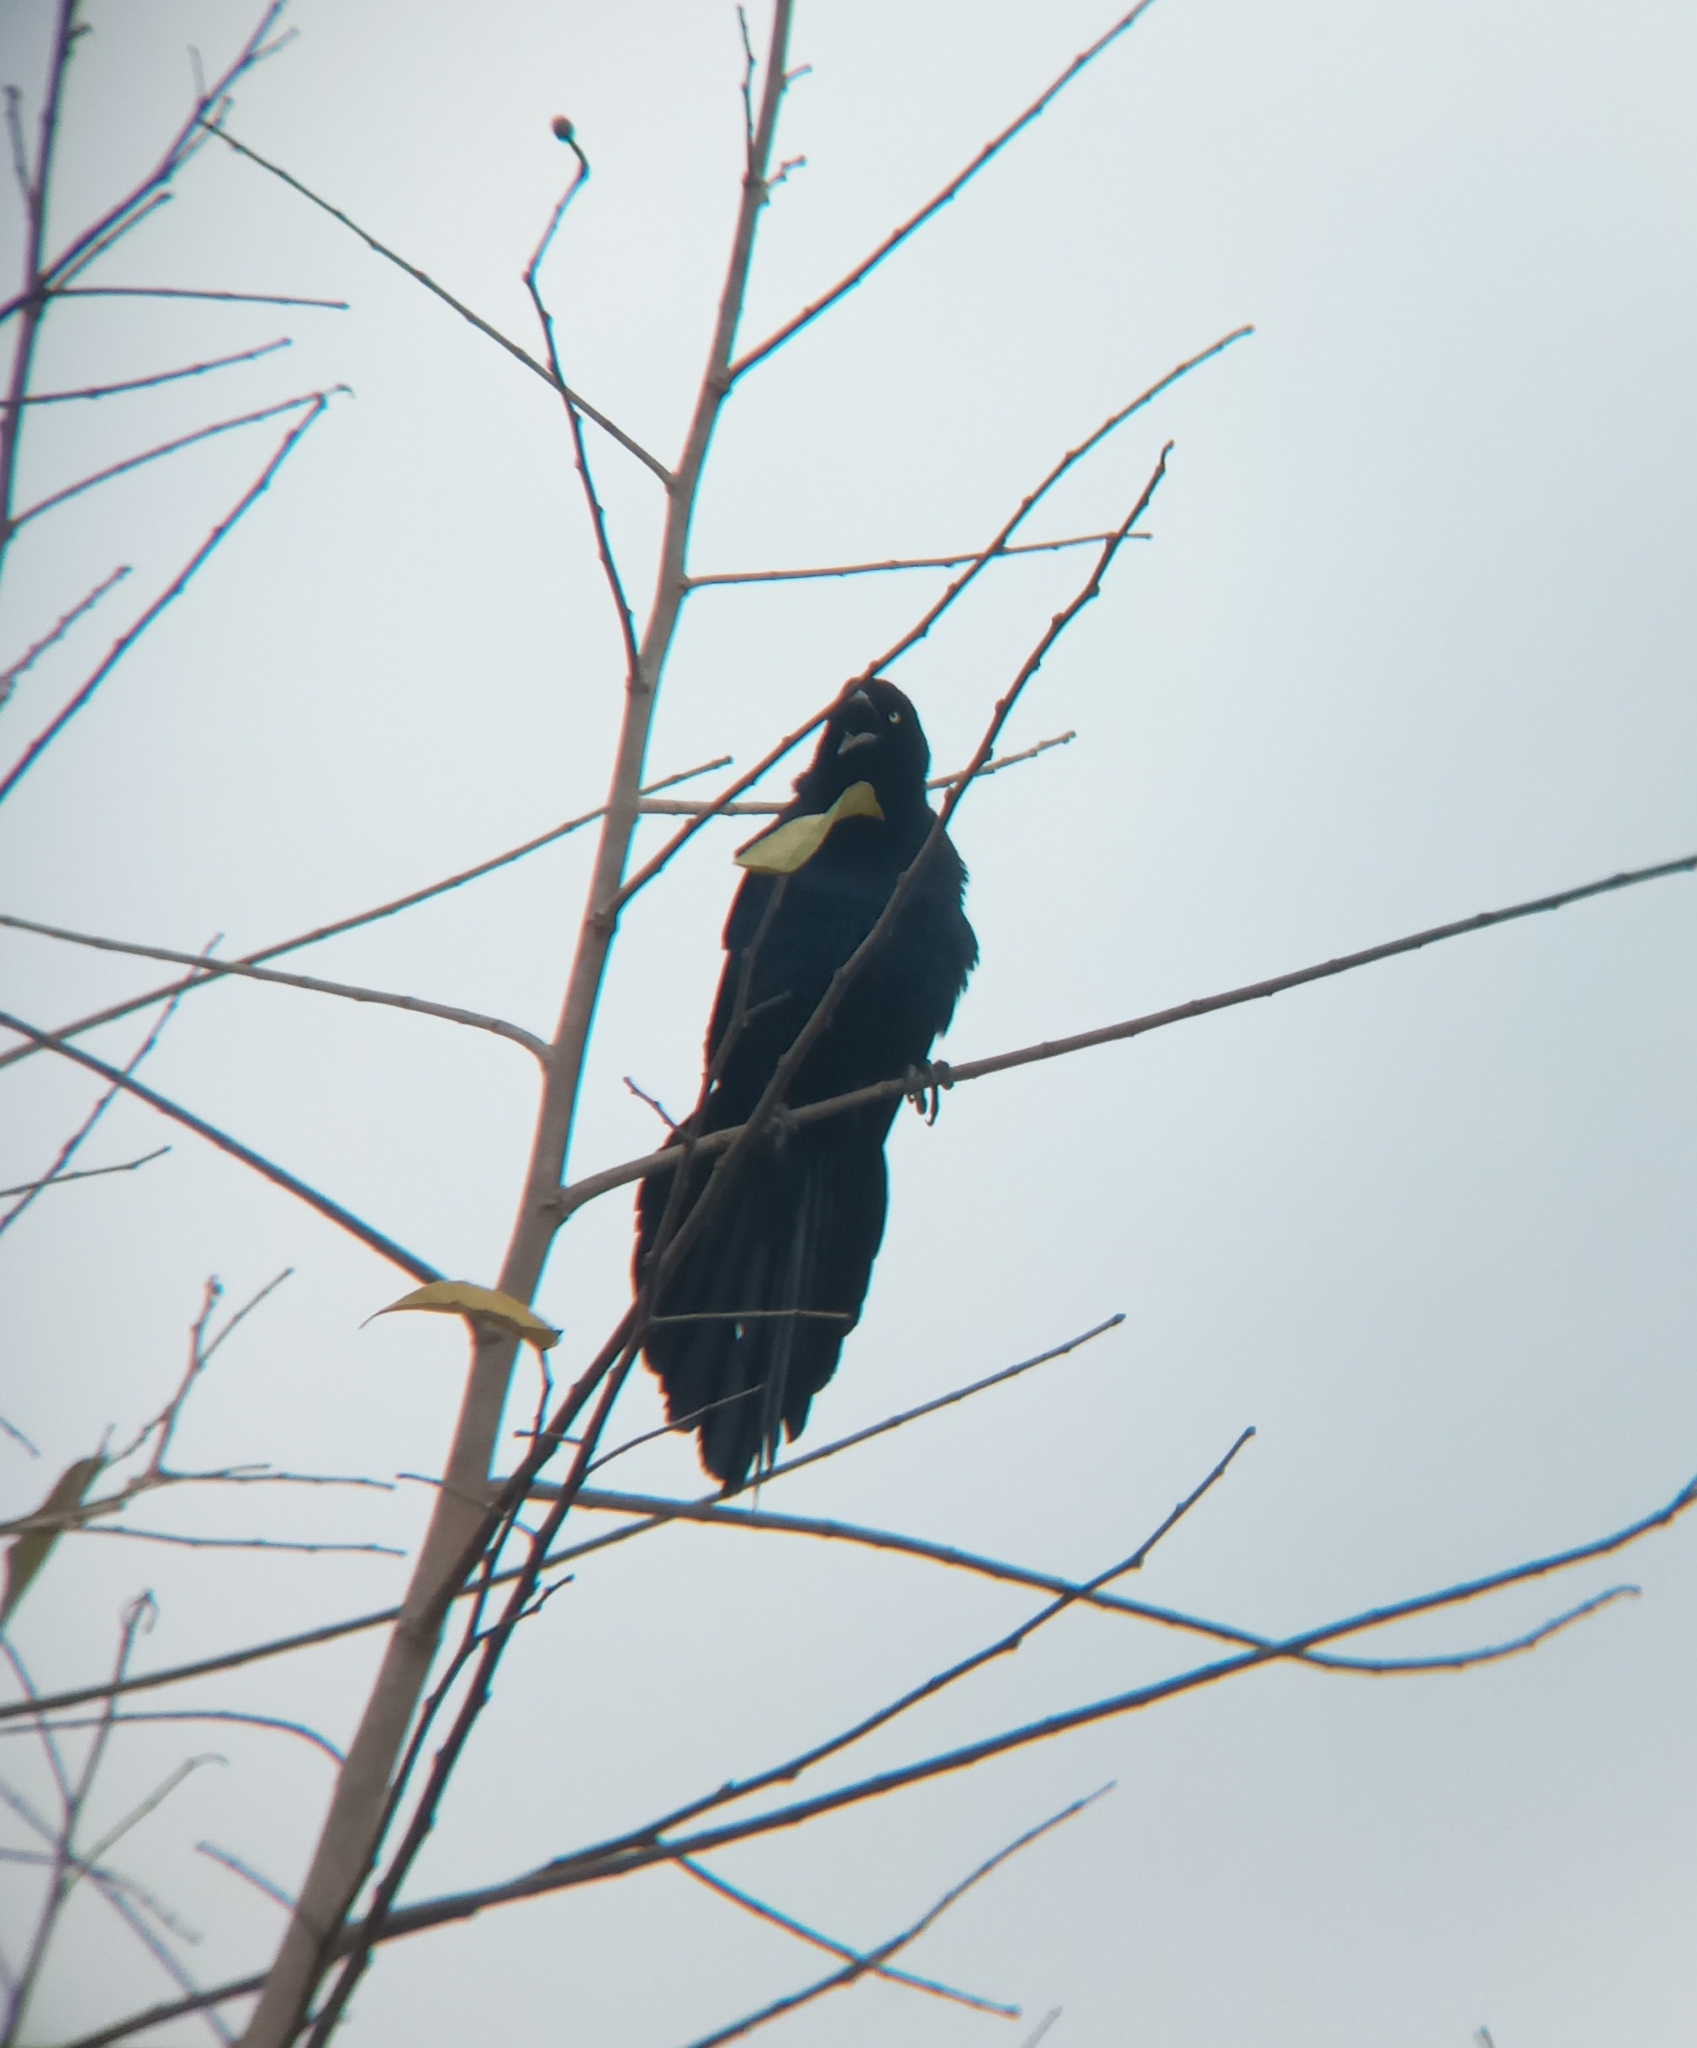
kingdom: Animalia
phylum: Chordata
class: Aves
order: Passeriformes
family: Icteridae
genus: Quiscalus
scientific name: Quiscalus mexicanus
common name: Great-tailed grackle
